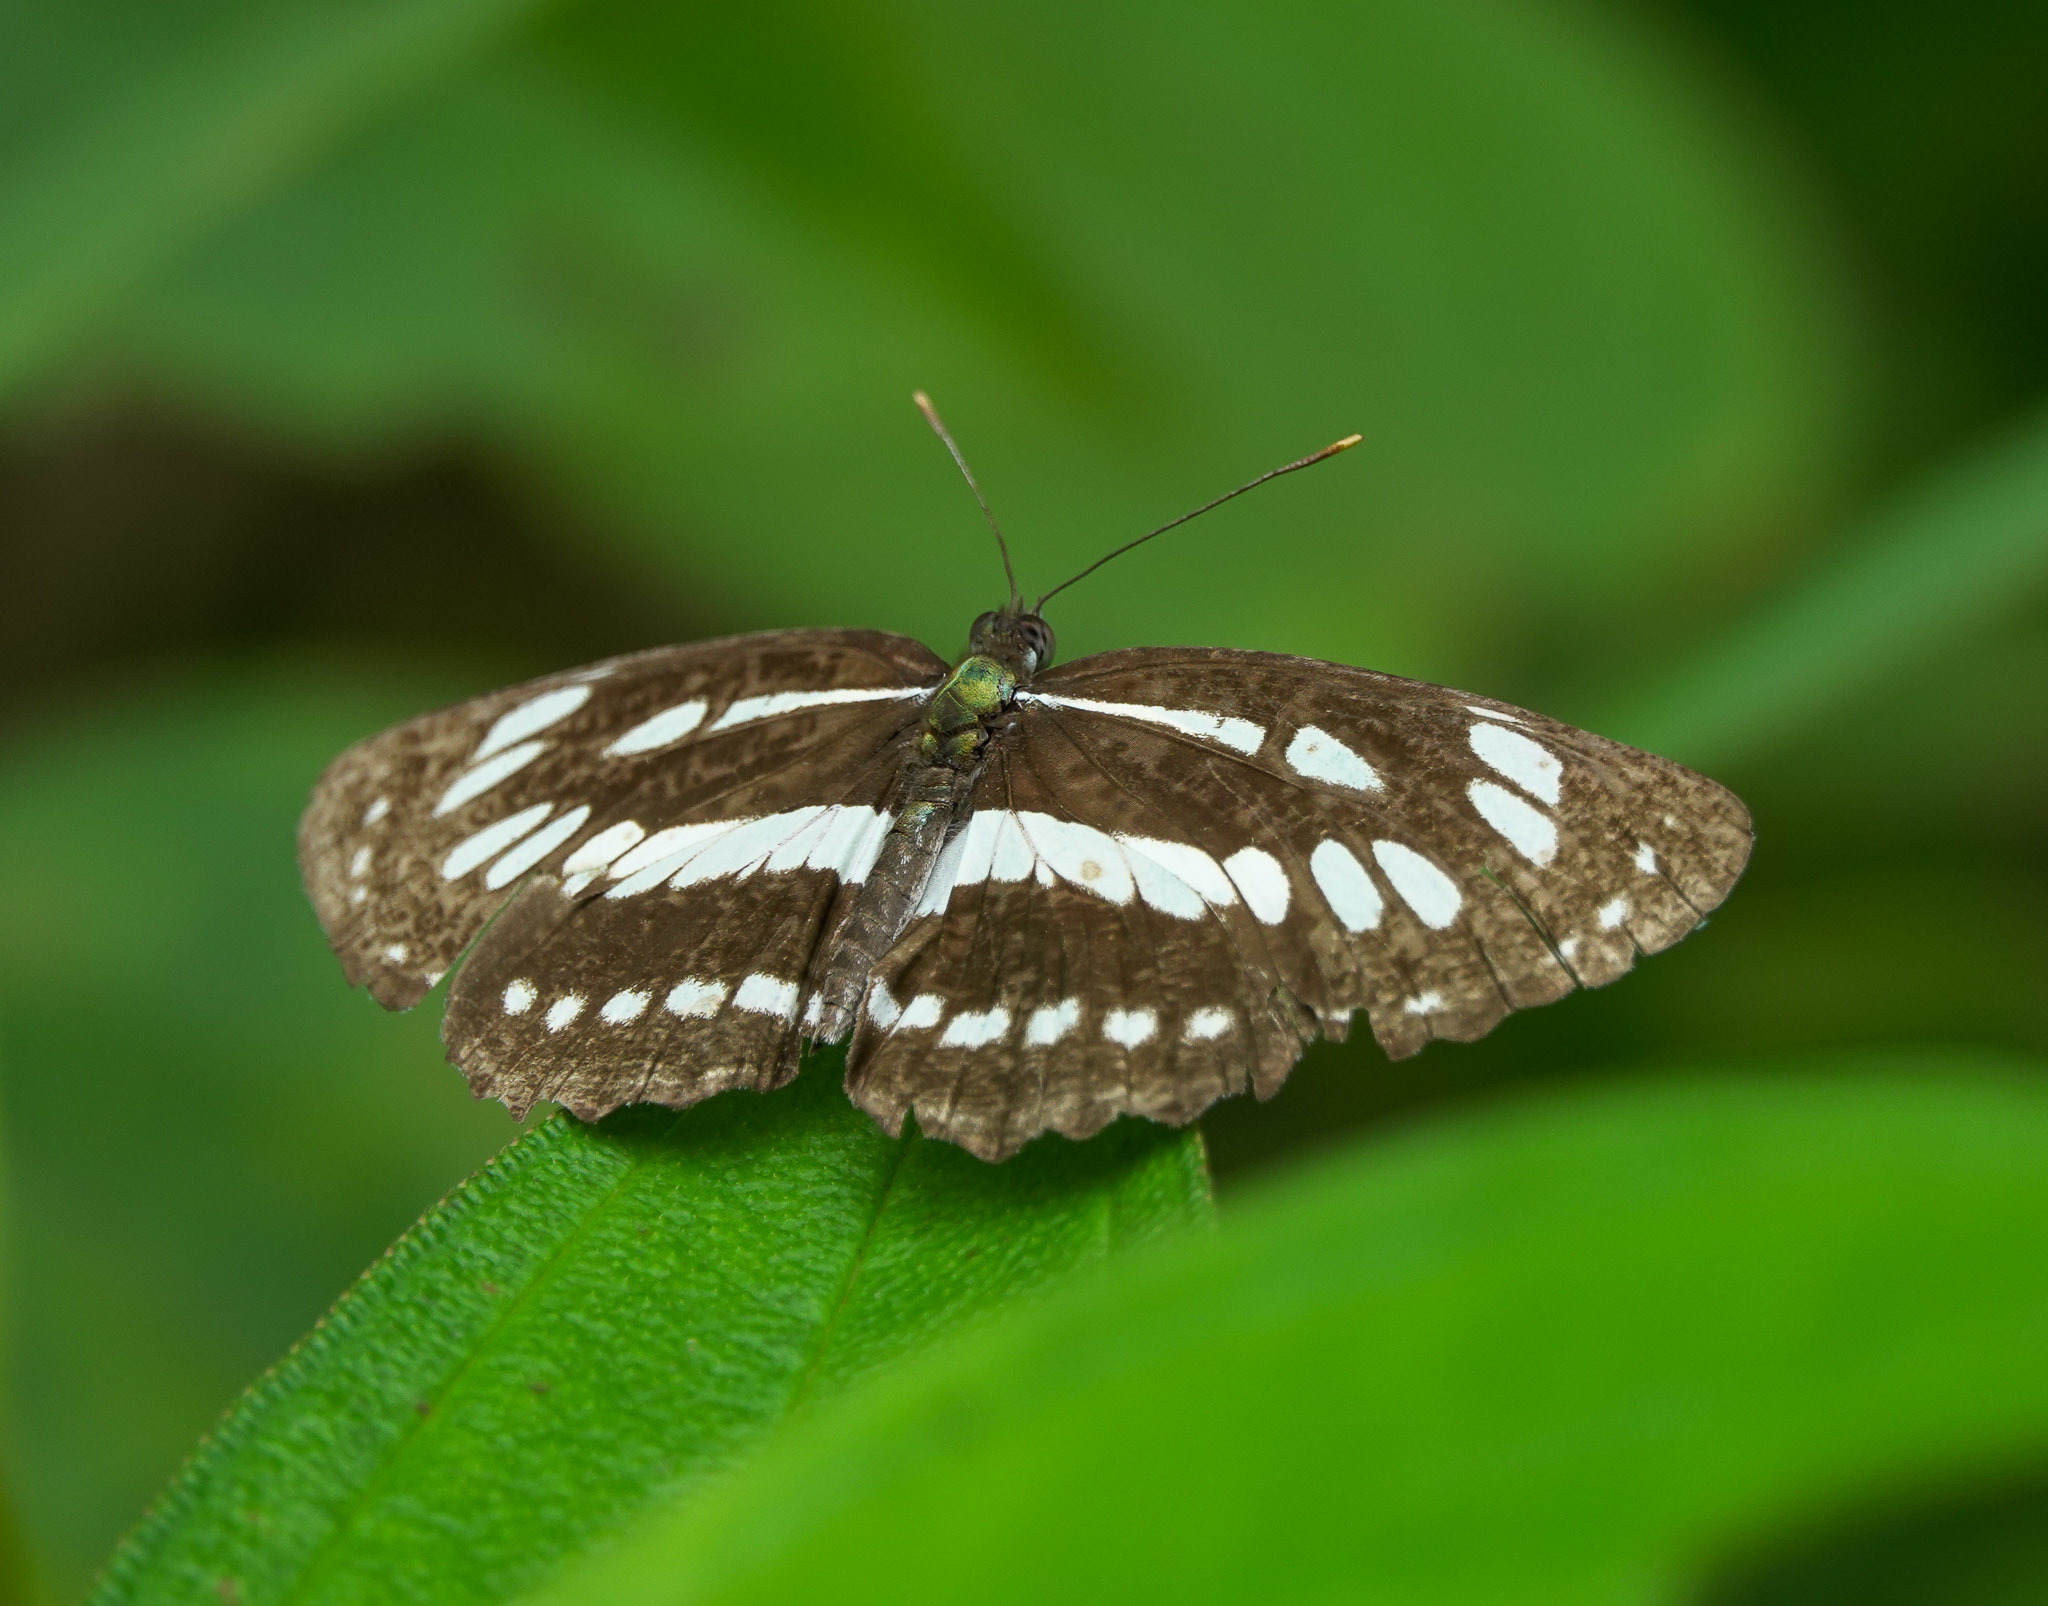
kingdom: Animalia
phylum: Arthropoda
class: Insecta
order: Lepidoptera
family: Nymphalidae
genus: Neptis
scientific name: Neptis hylas
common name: Common sailer
